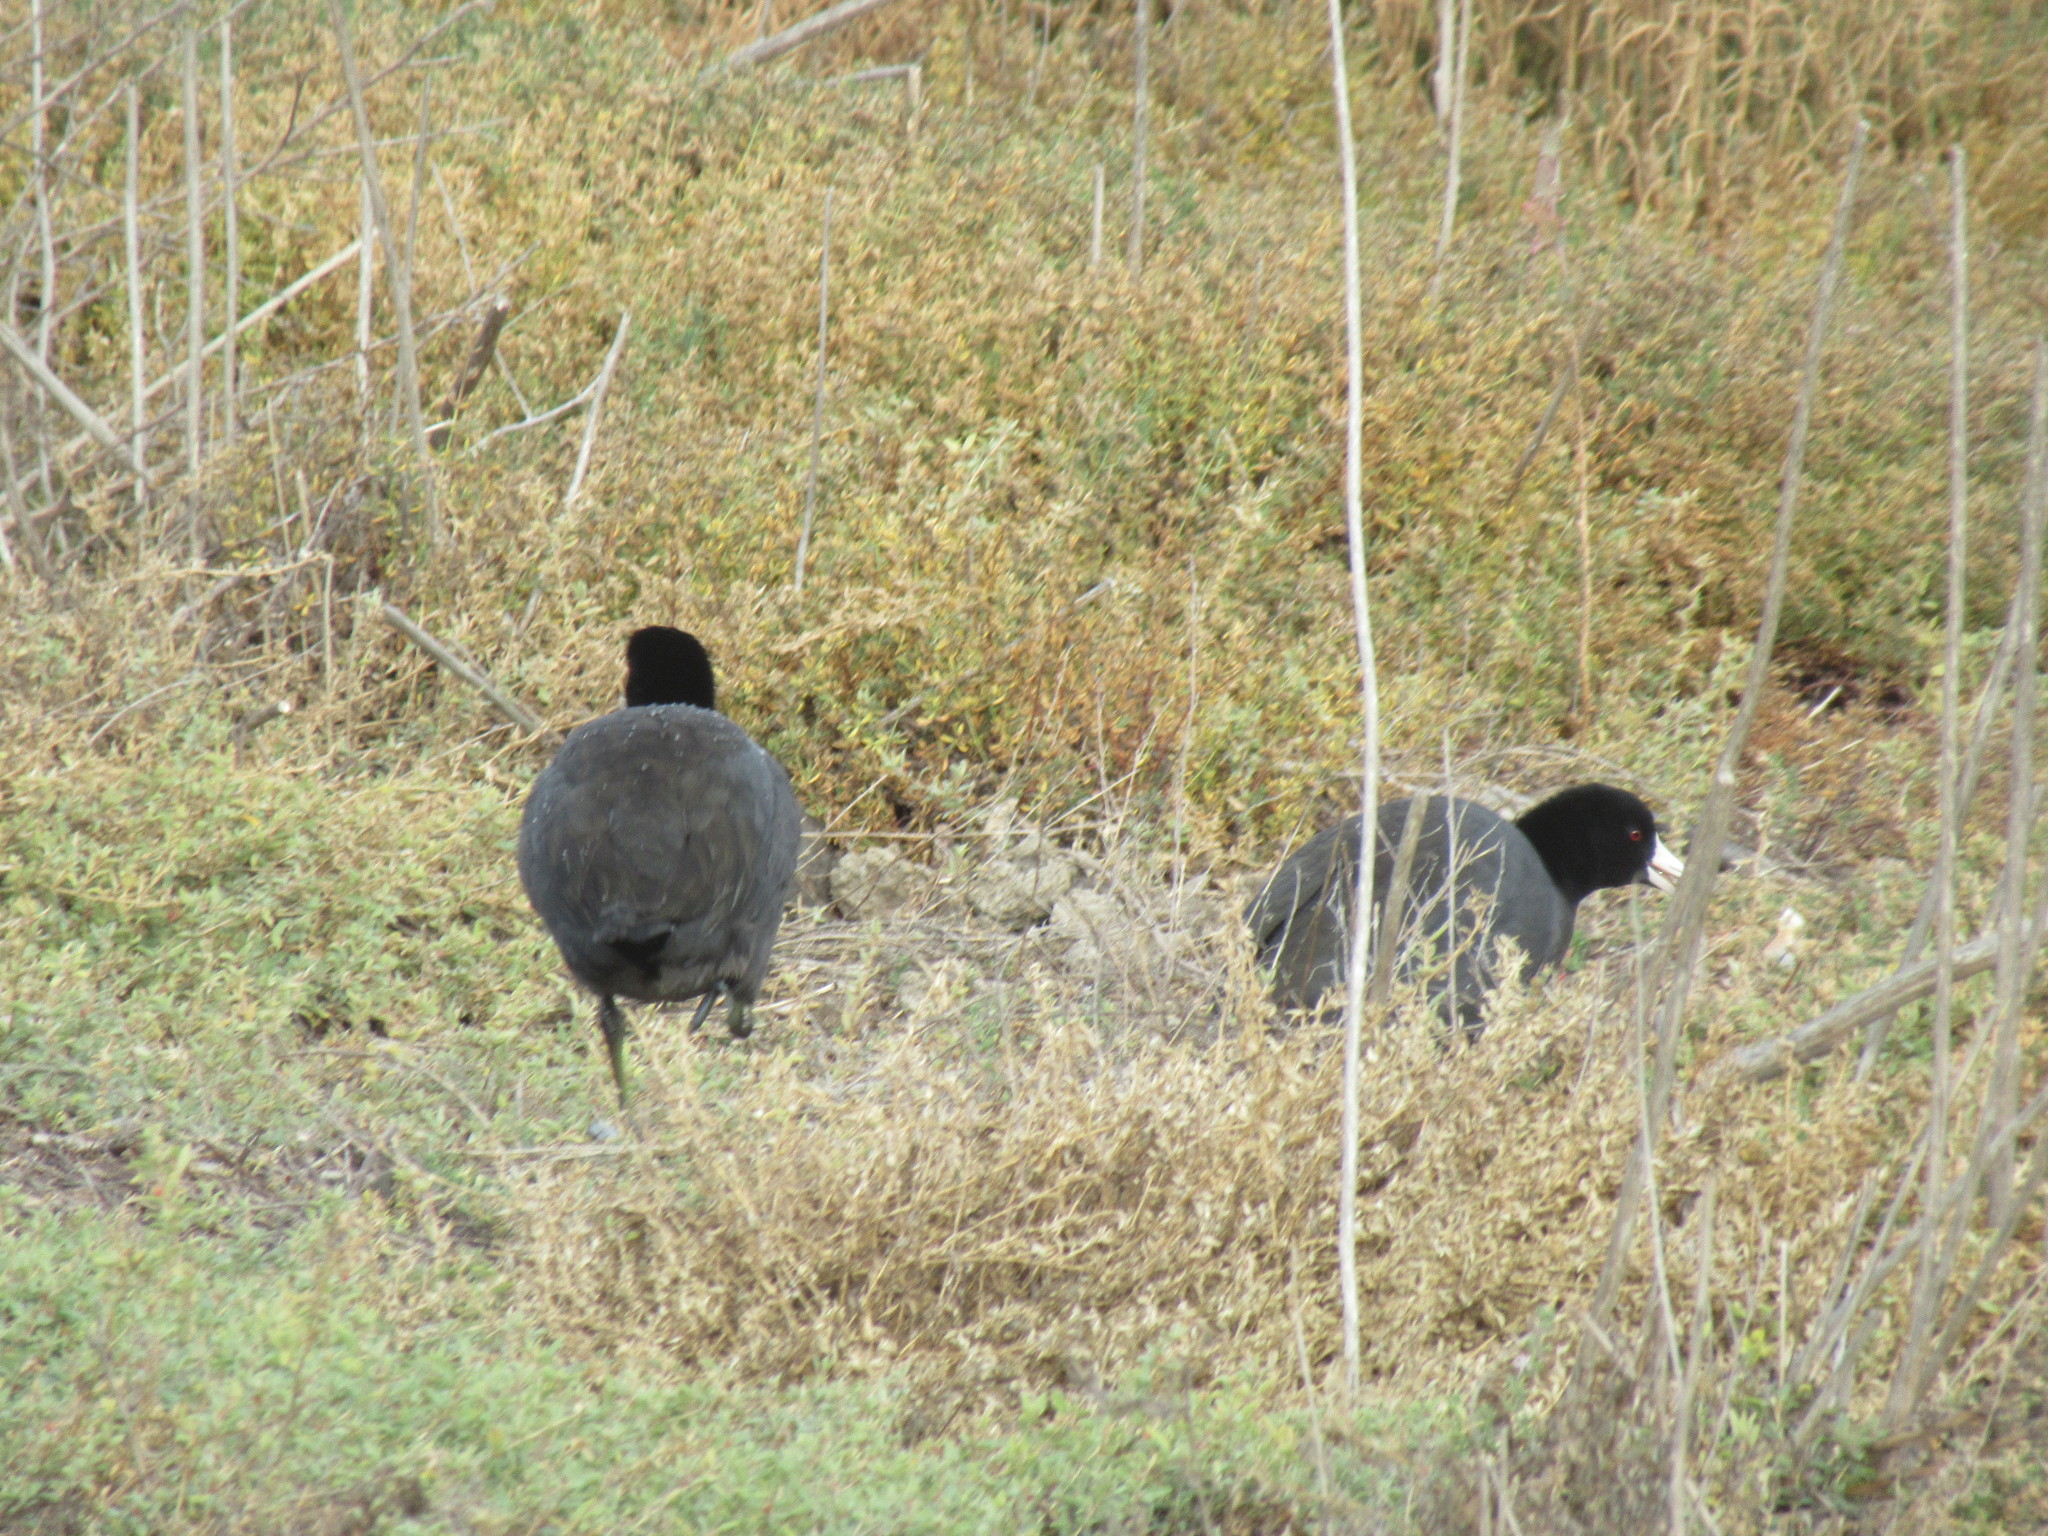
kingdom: Animalia
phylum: Chordata
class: Aves
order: Gruiformes
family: Rallidae
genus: Fulica
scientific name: Fulica americana
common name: American coot
